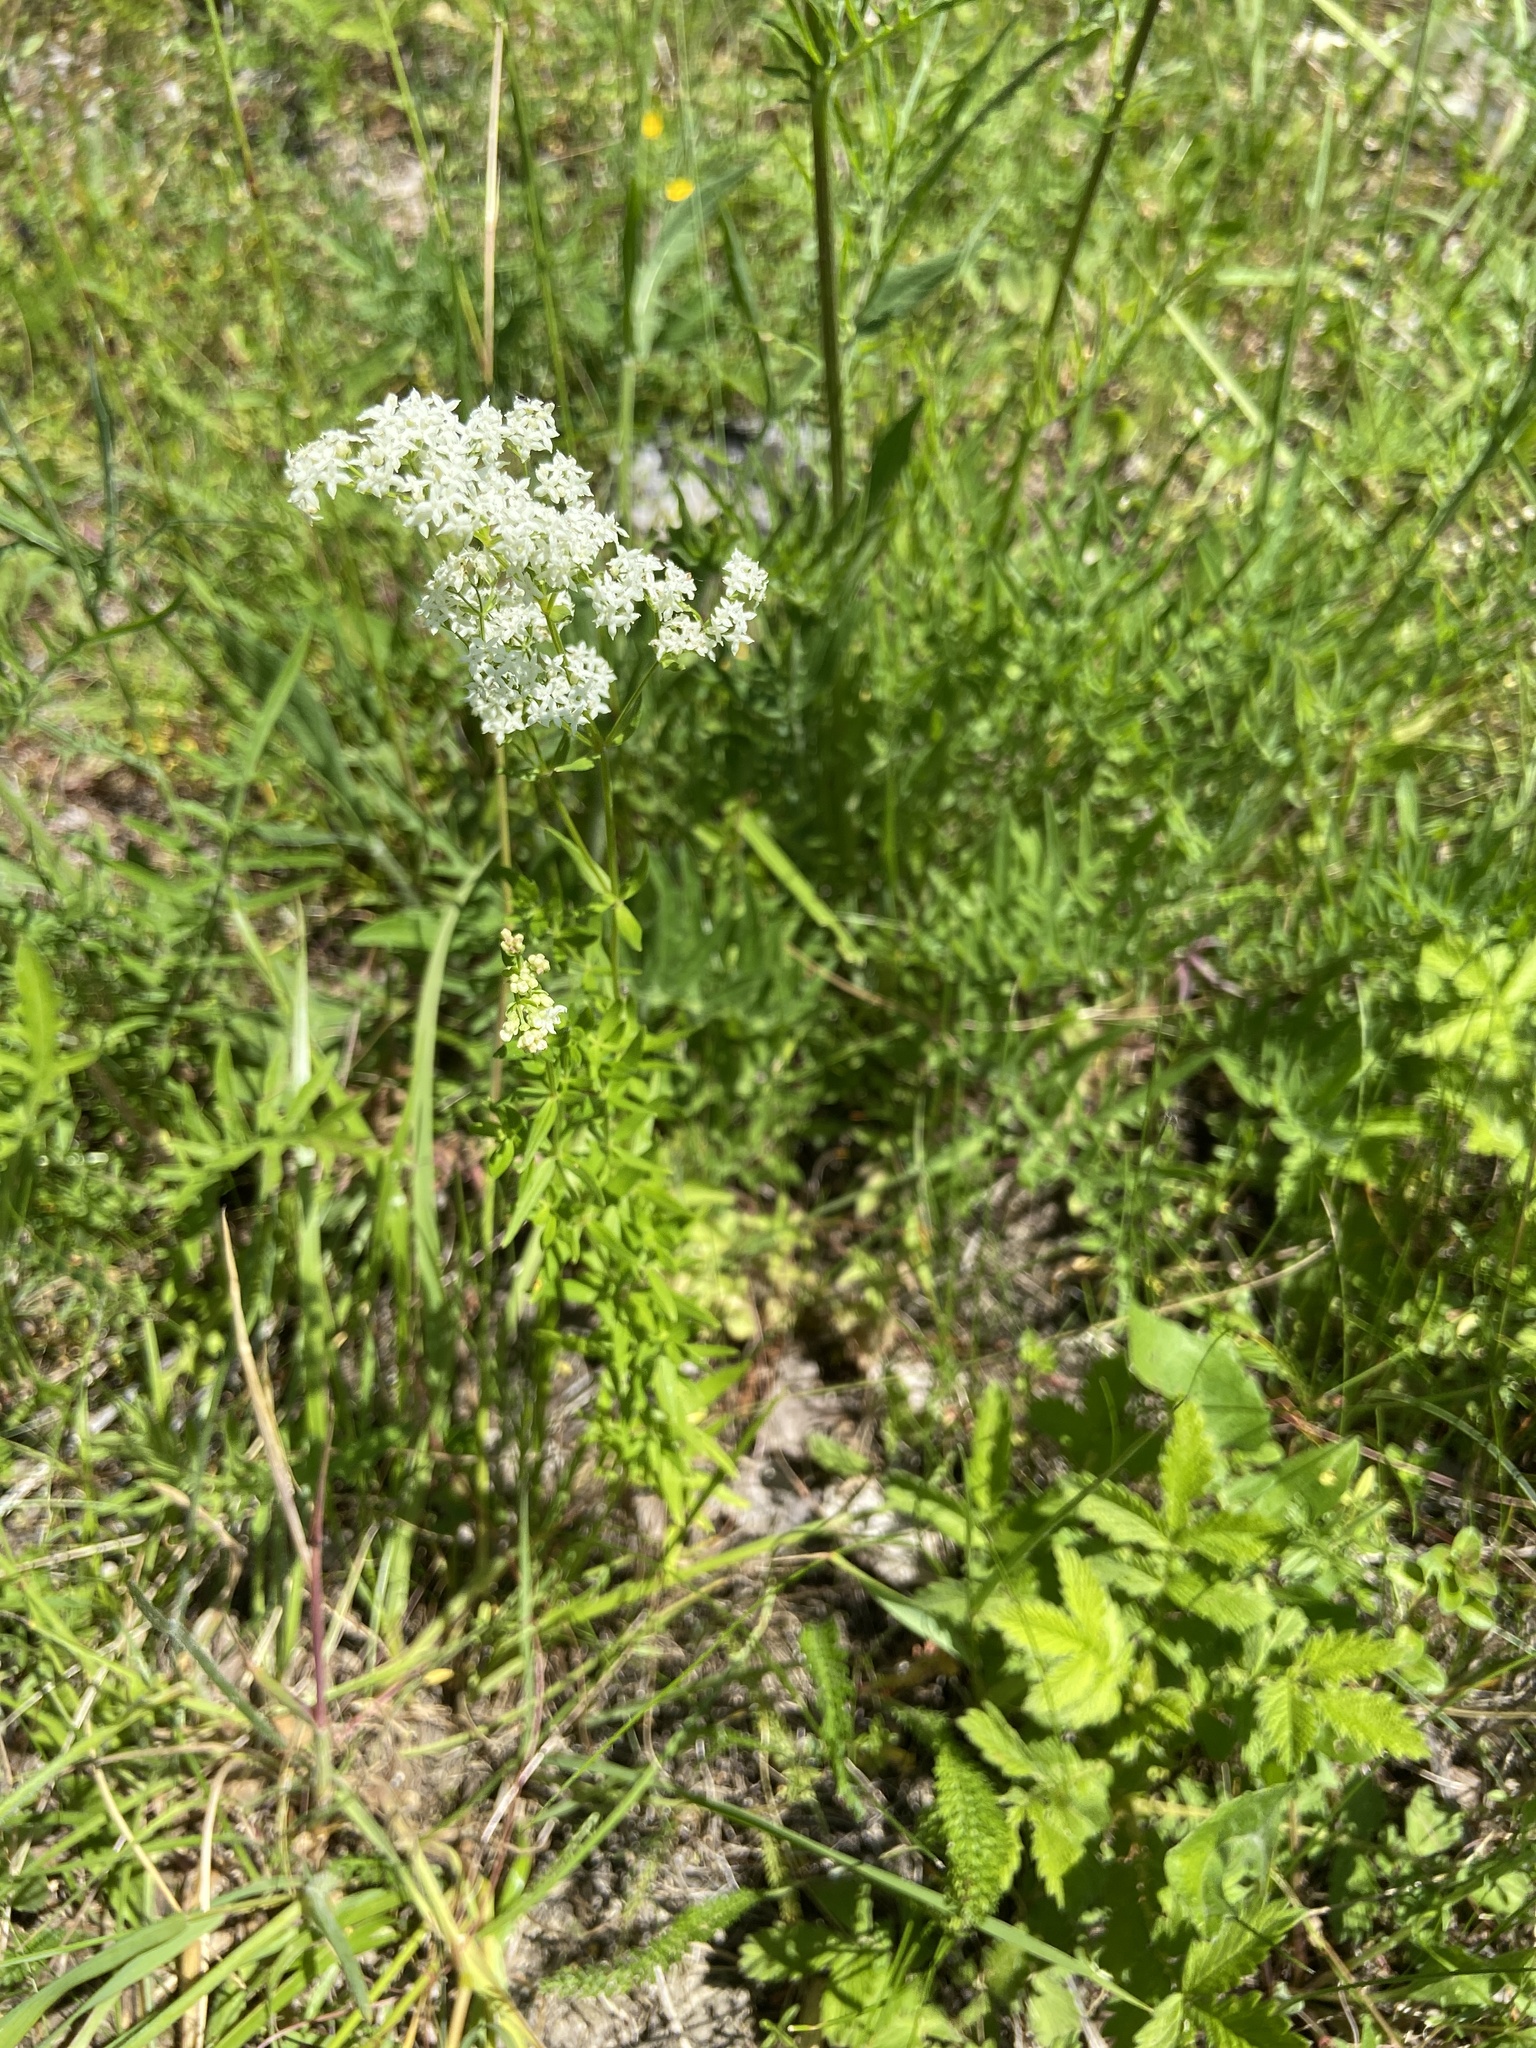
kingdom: Plantae
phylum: Tracheophyta
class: Magnoliopsida
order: Gentianales
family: Rubiaceae
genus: Galium
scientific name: Galium boreale
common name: Northern bedstraw
